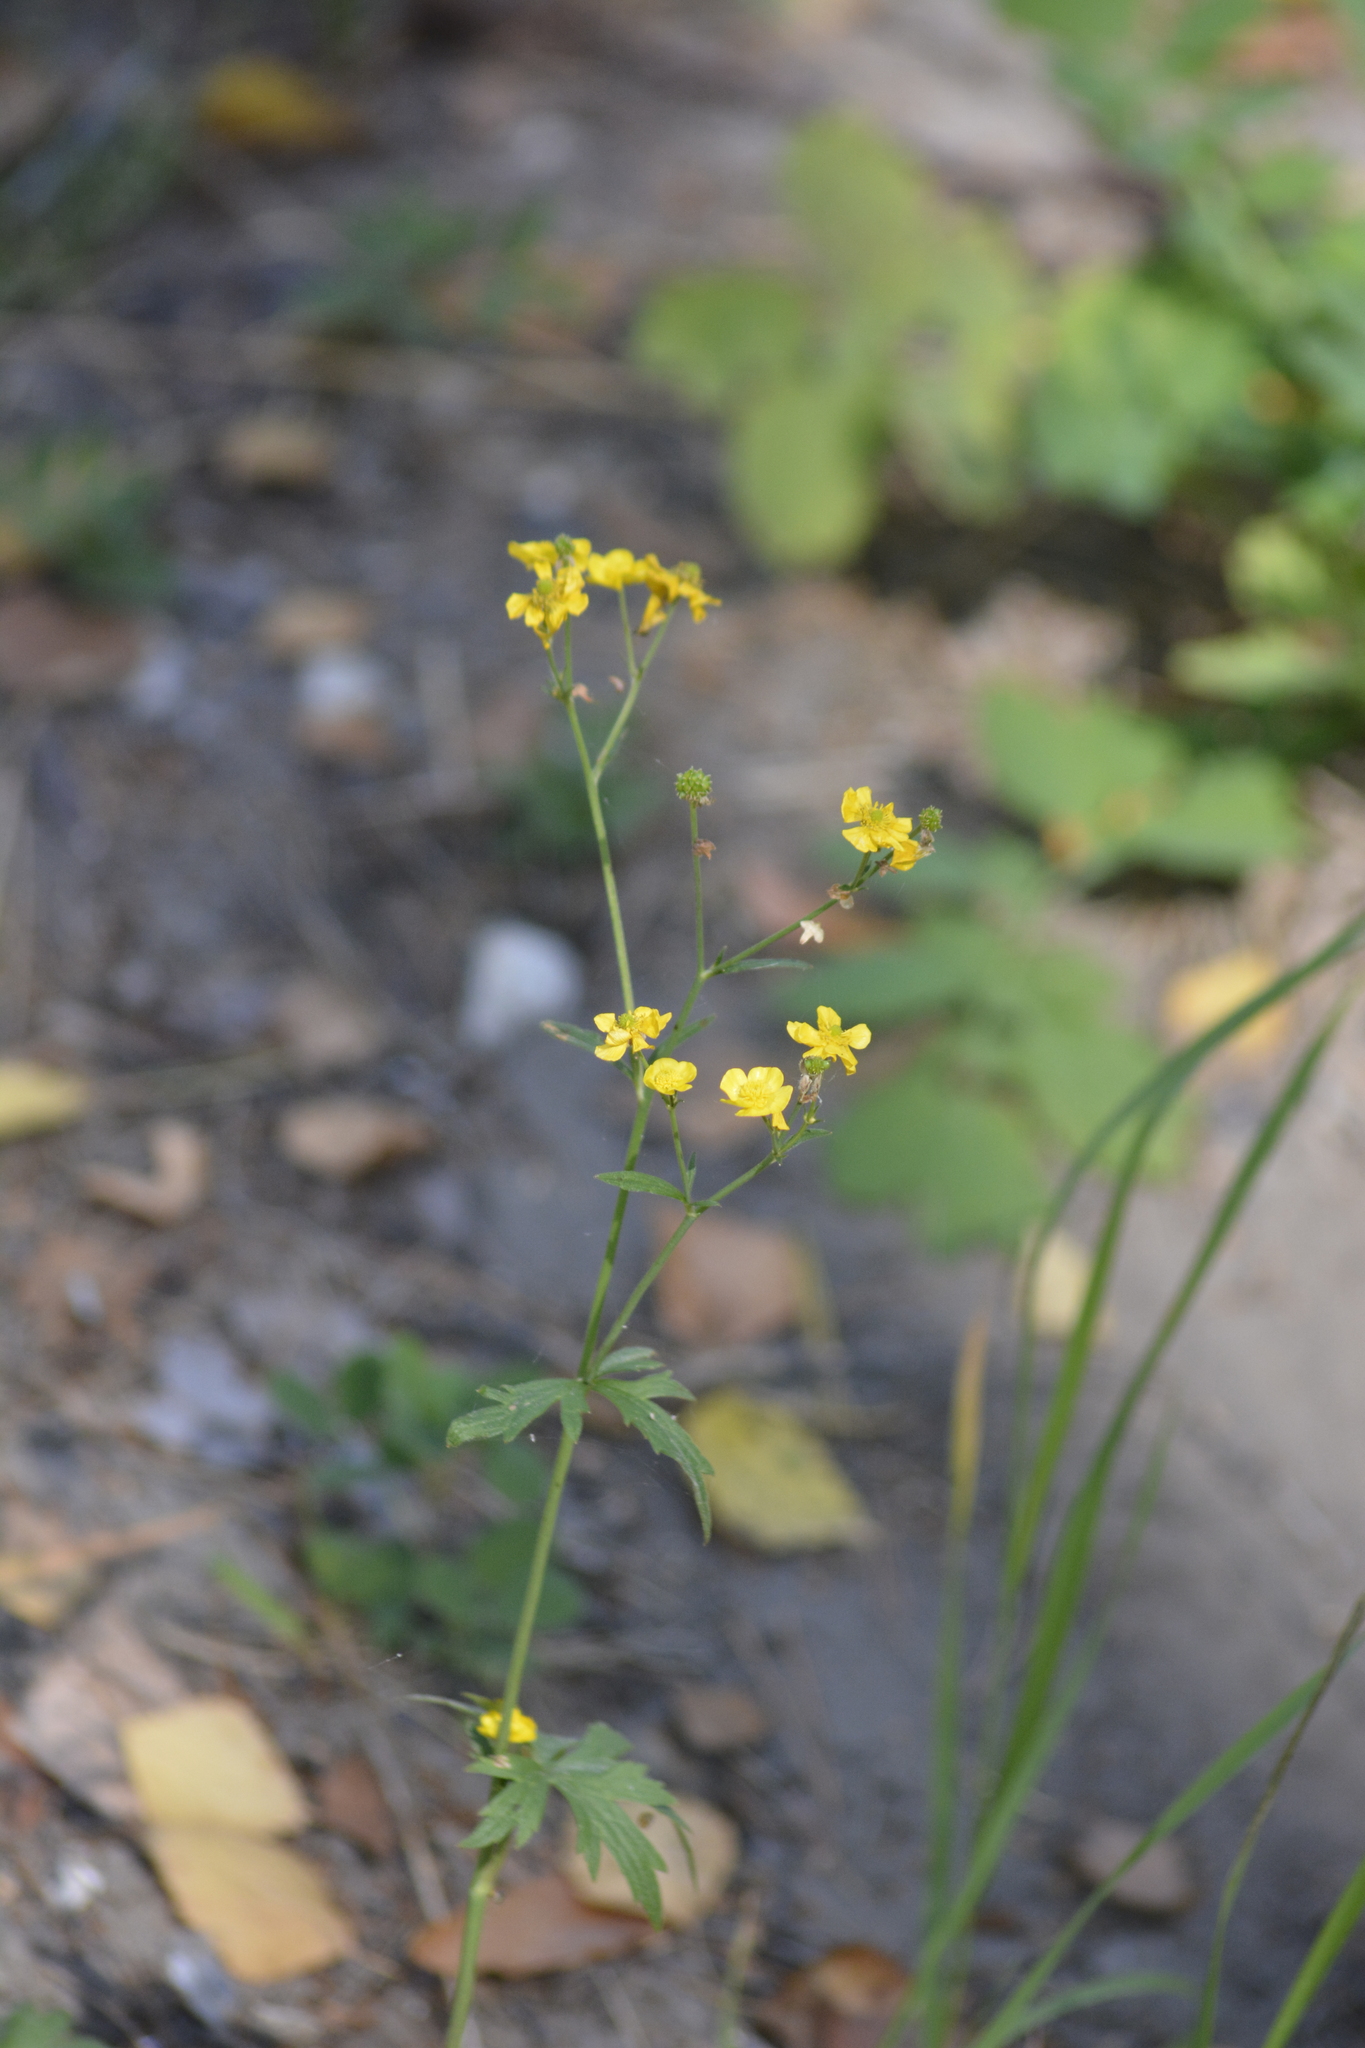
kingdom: Plantae
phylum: Tracheophyta
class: Magnoliopsida
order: Ranunculales
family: Ranunculaceae
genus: Ranunculus
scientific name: Ranunculus acris
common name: Meadow buttercup
